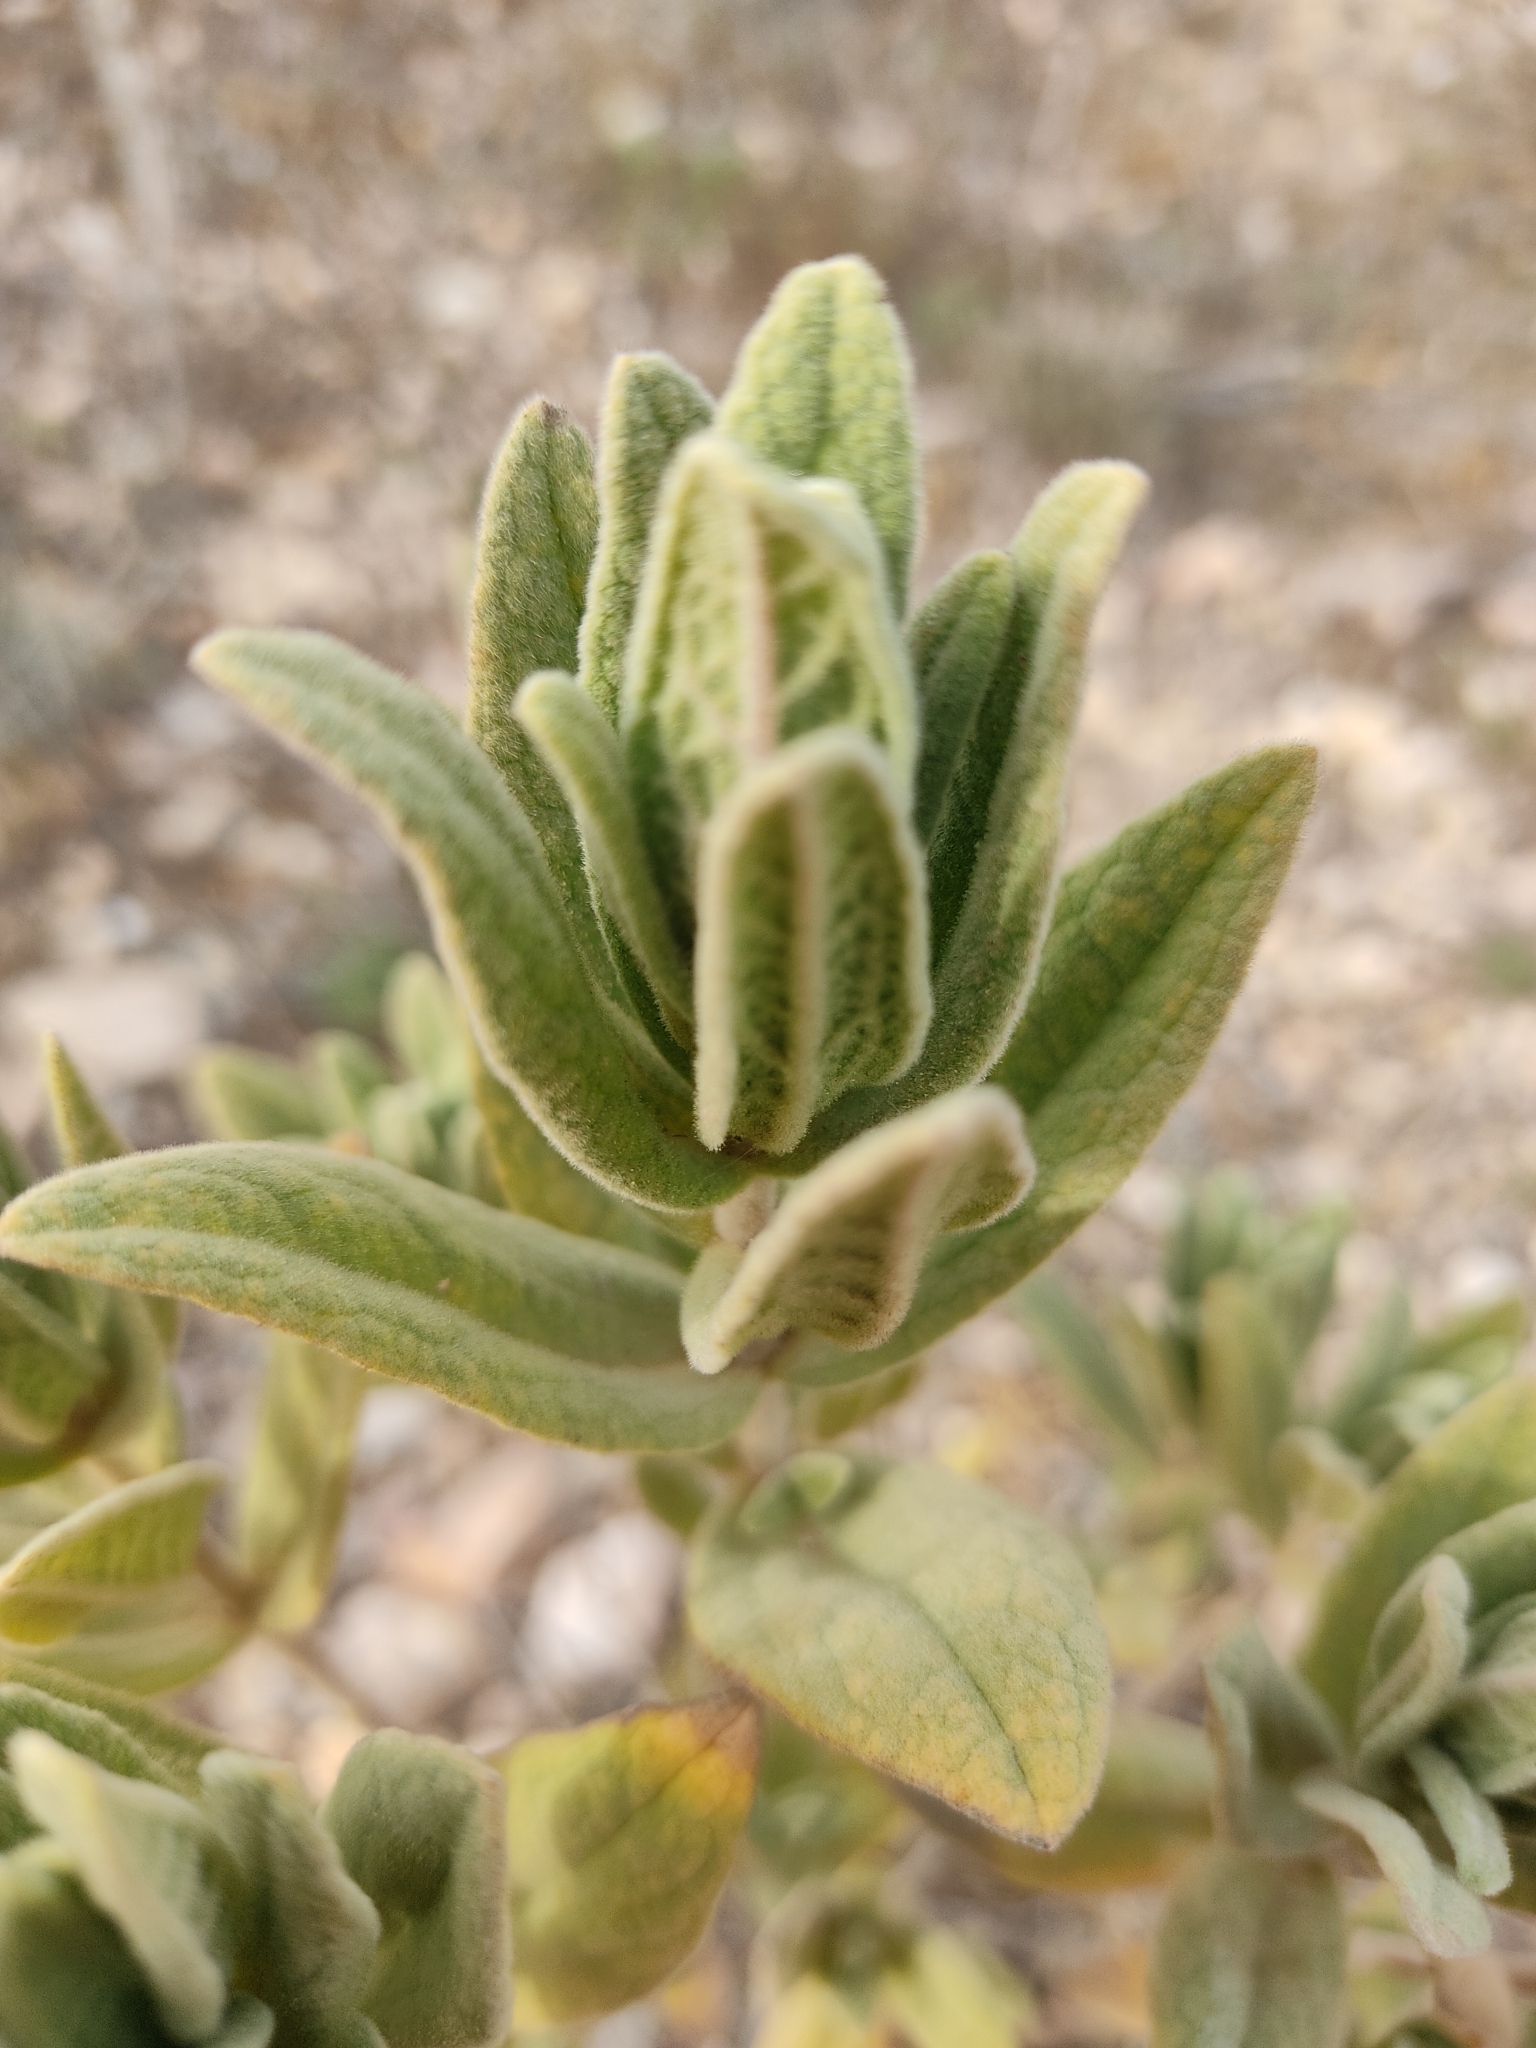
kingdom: Plantae
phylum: Tracheophyta
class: Magnoliopsida
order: Malvales
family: Cistaceae
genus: Cistus
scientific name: Cistus albidus
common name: White-leaf rock-rose
